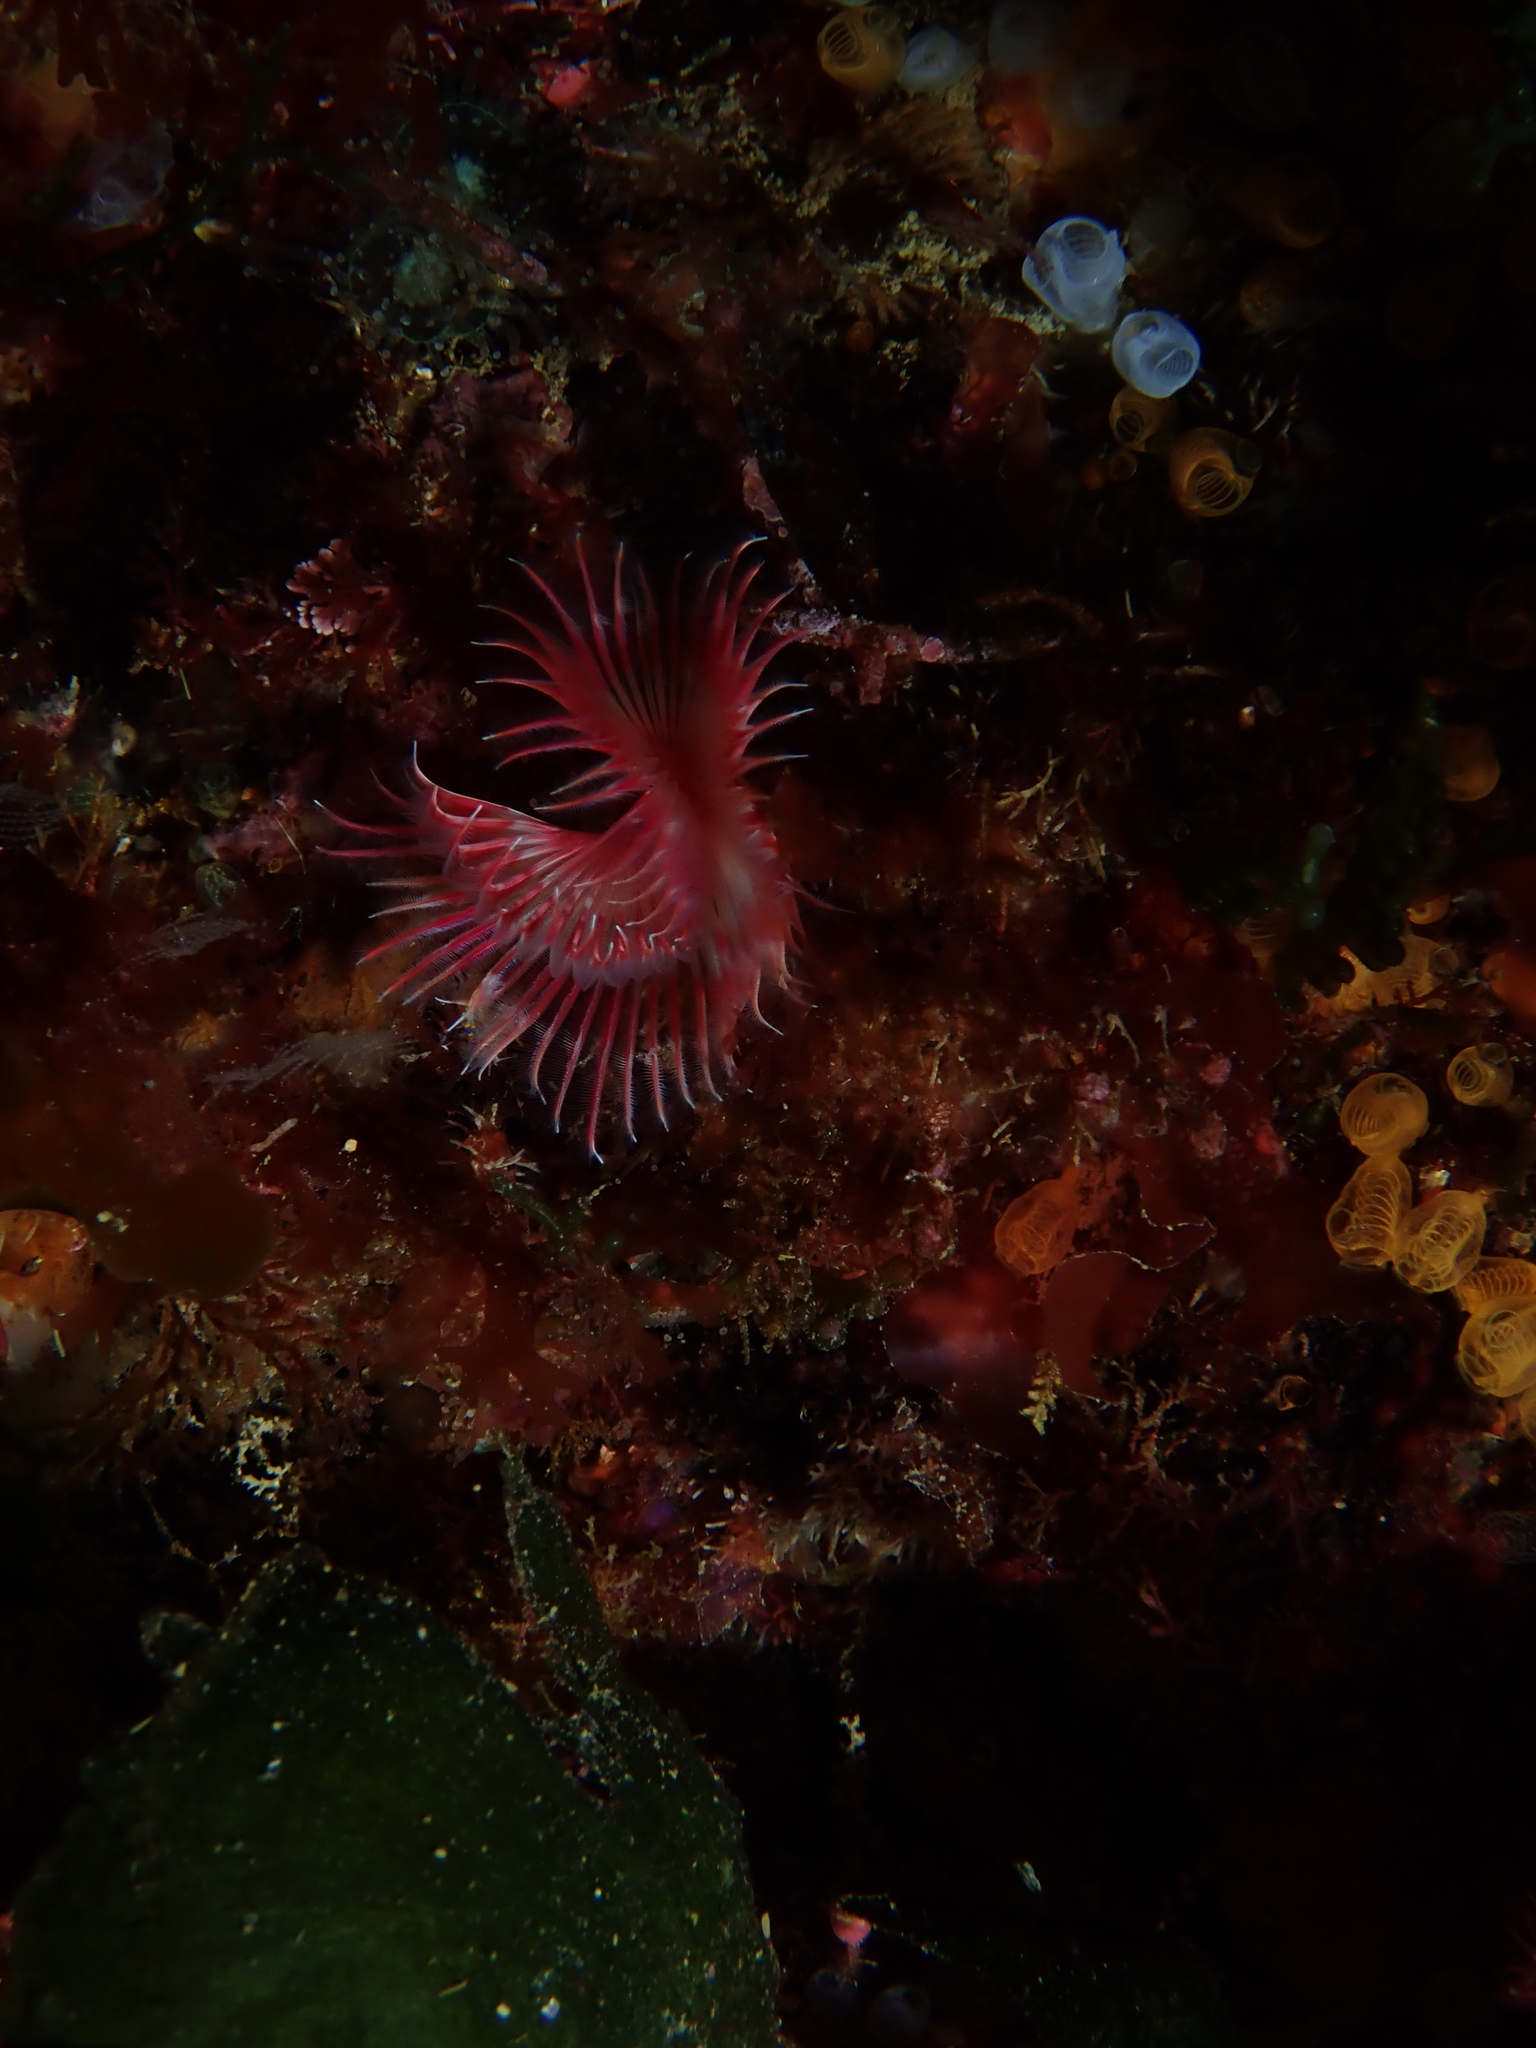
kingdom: Animalia
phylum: Annelida
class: Polychaeta
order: Sabellida
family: Serpulidae
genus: Serpula
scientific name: Serpula vermicularis
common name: Calcareous tubeworm
